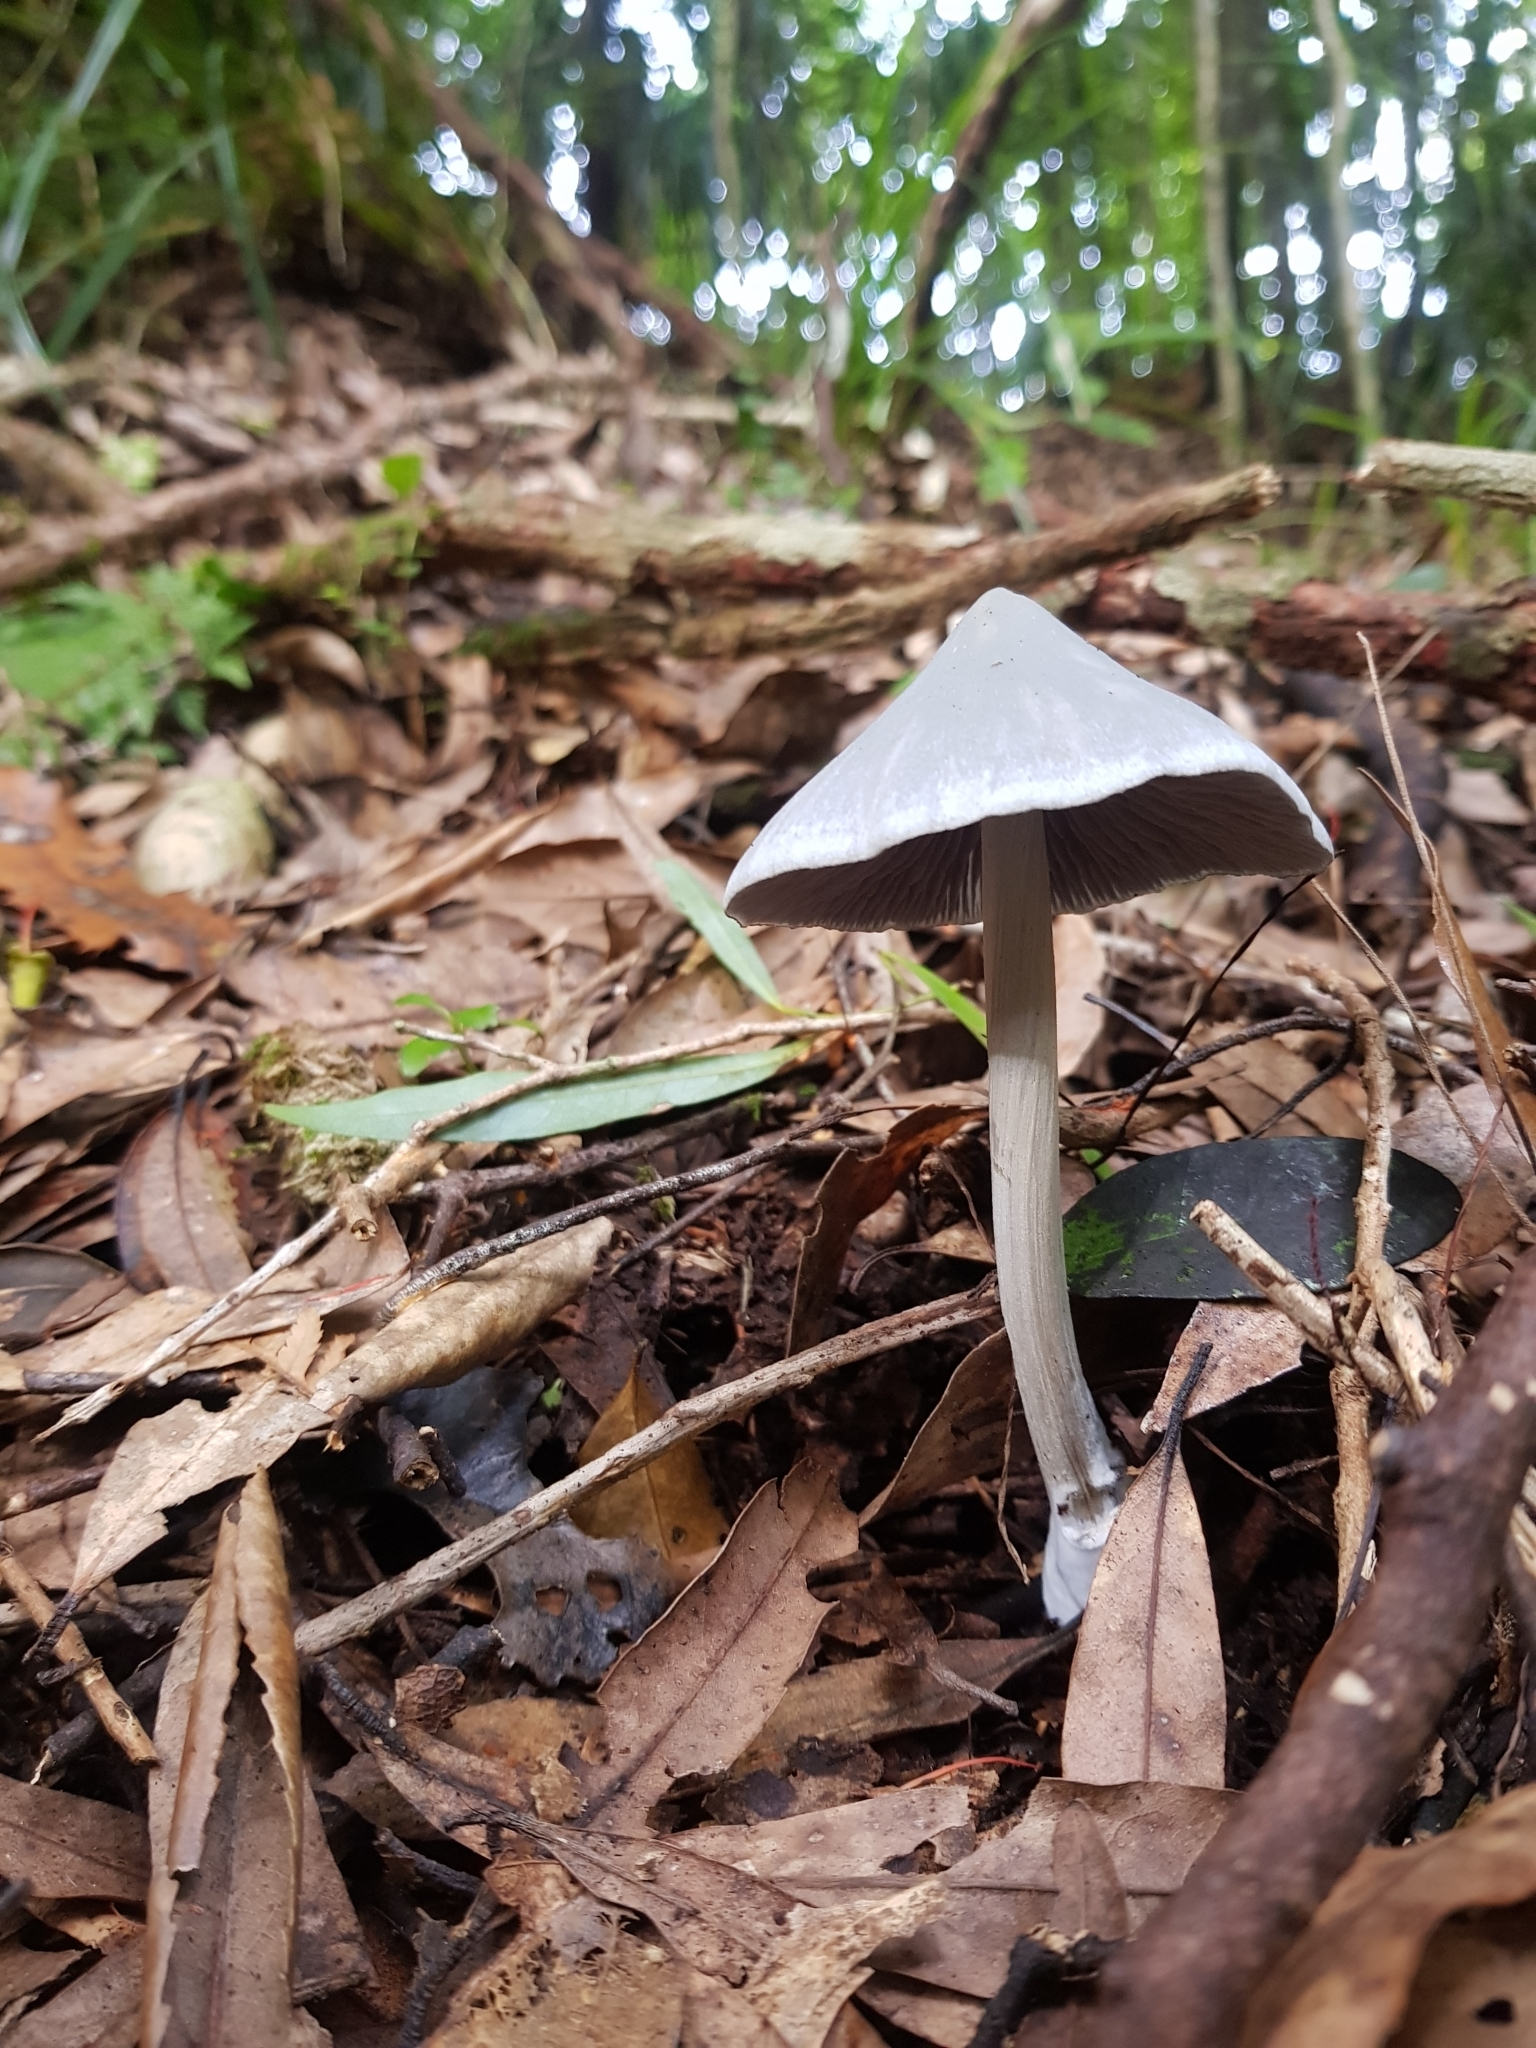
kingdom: Fungi
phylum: Basidiomycota
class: Agaricomycetes
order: Agaricales
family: Entolomataceae
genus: Entoloma
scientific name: Entoloma canoconicum
